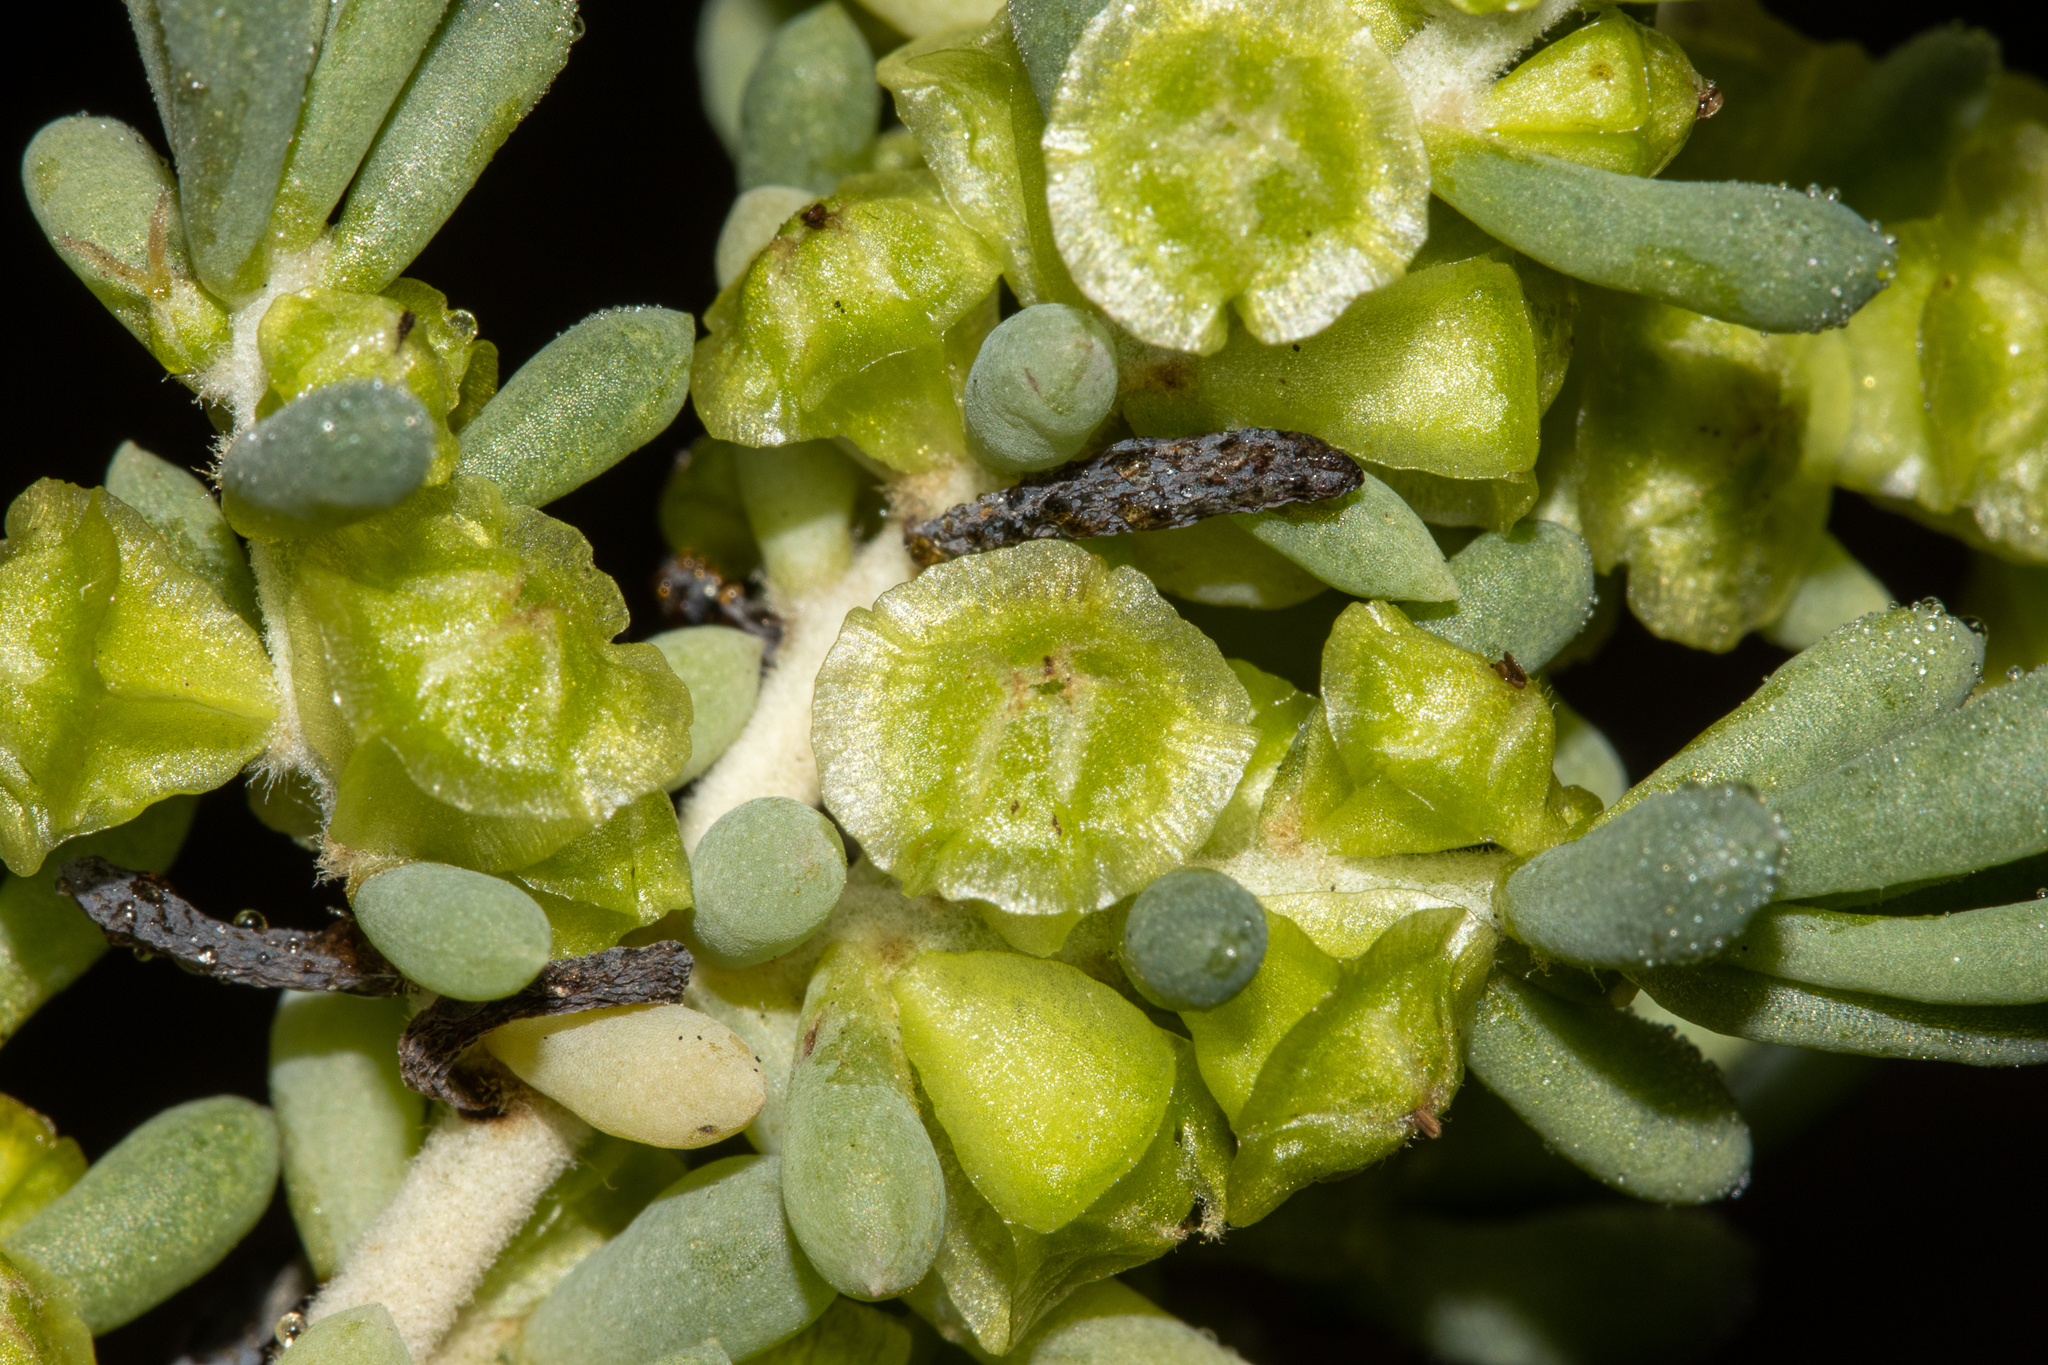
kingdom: Plantae
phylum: Tracheophyta
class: Magnoliopsida
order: Caryophyllales
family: Amaranthaceae
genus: Maireana
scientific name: Maireana erioclada
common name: Rosy bluebush
